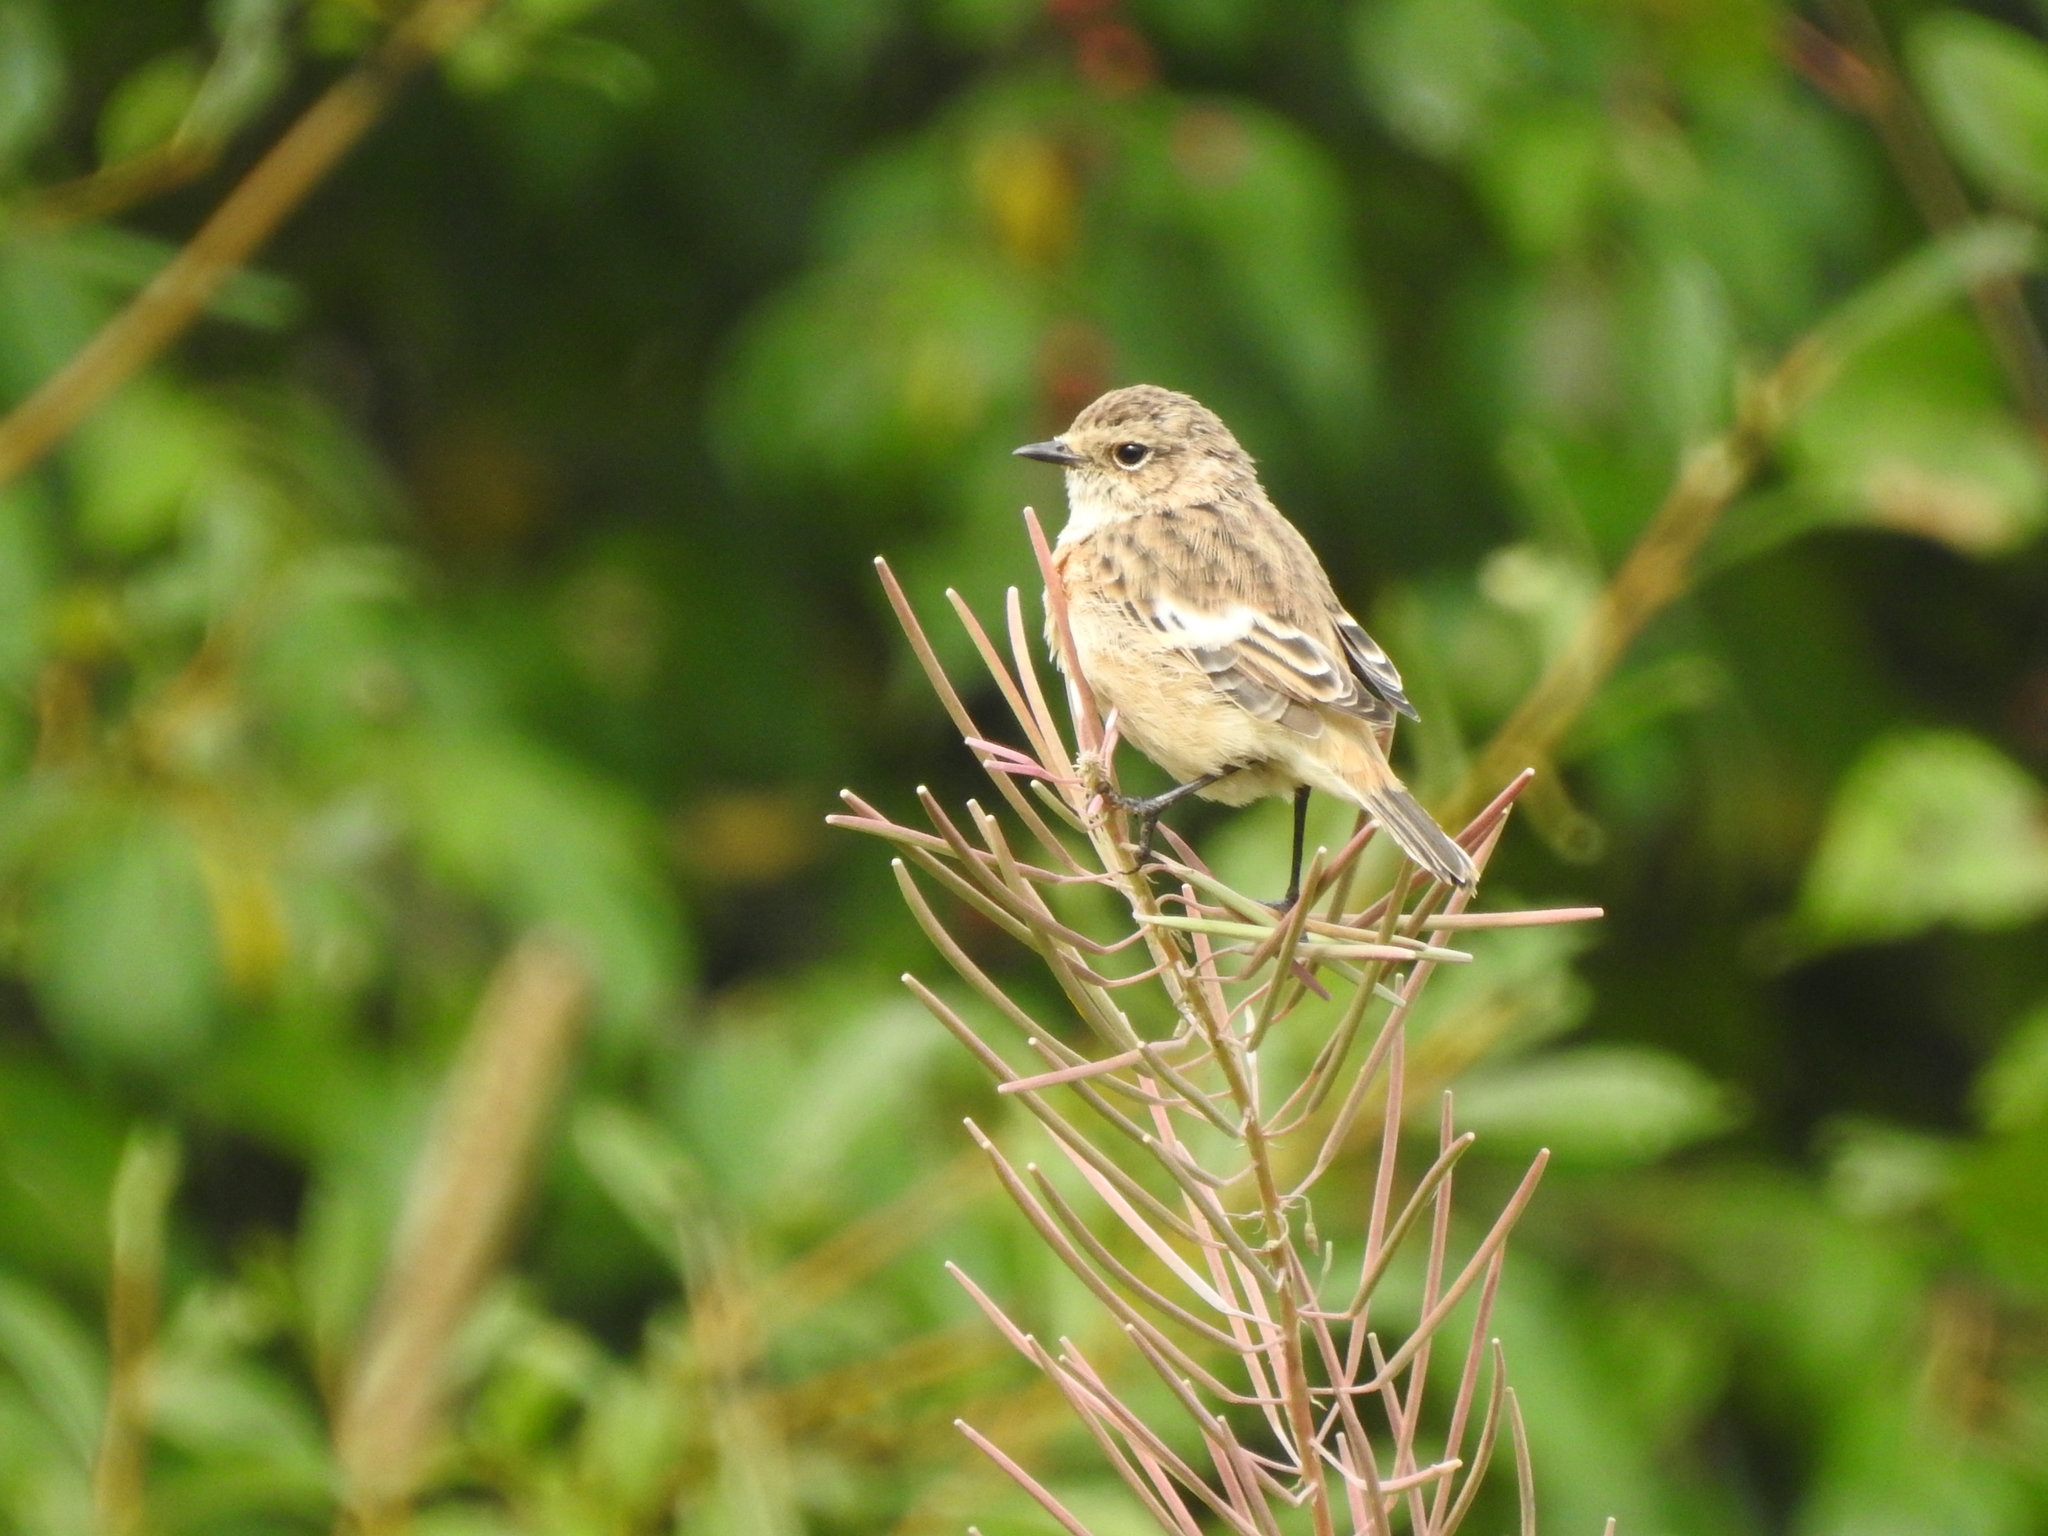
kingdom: Animalia
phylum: Chordata
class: Aves
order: Passeriformes
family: Muscicapidae
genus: Saxicola
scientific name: Saxicola maurus
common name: Siberian stonechat
